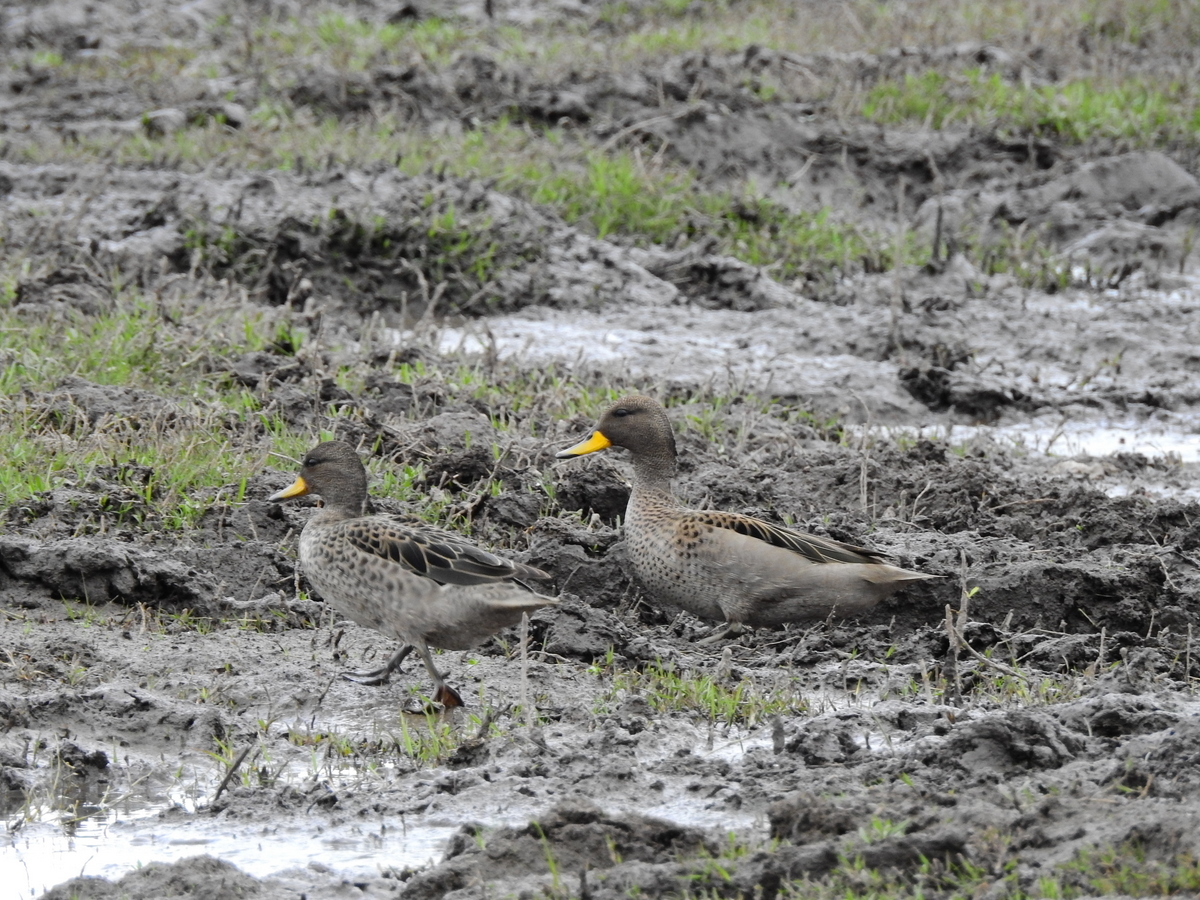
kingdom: Animalia
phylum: Chordata
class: Aves
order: Anseriformes
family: Anatidae
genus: Anas
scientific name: Anas flavirostris
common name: Yellow-billed teal
